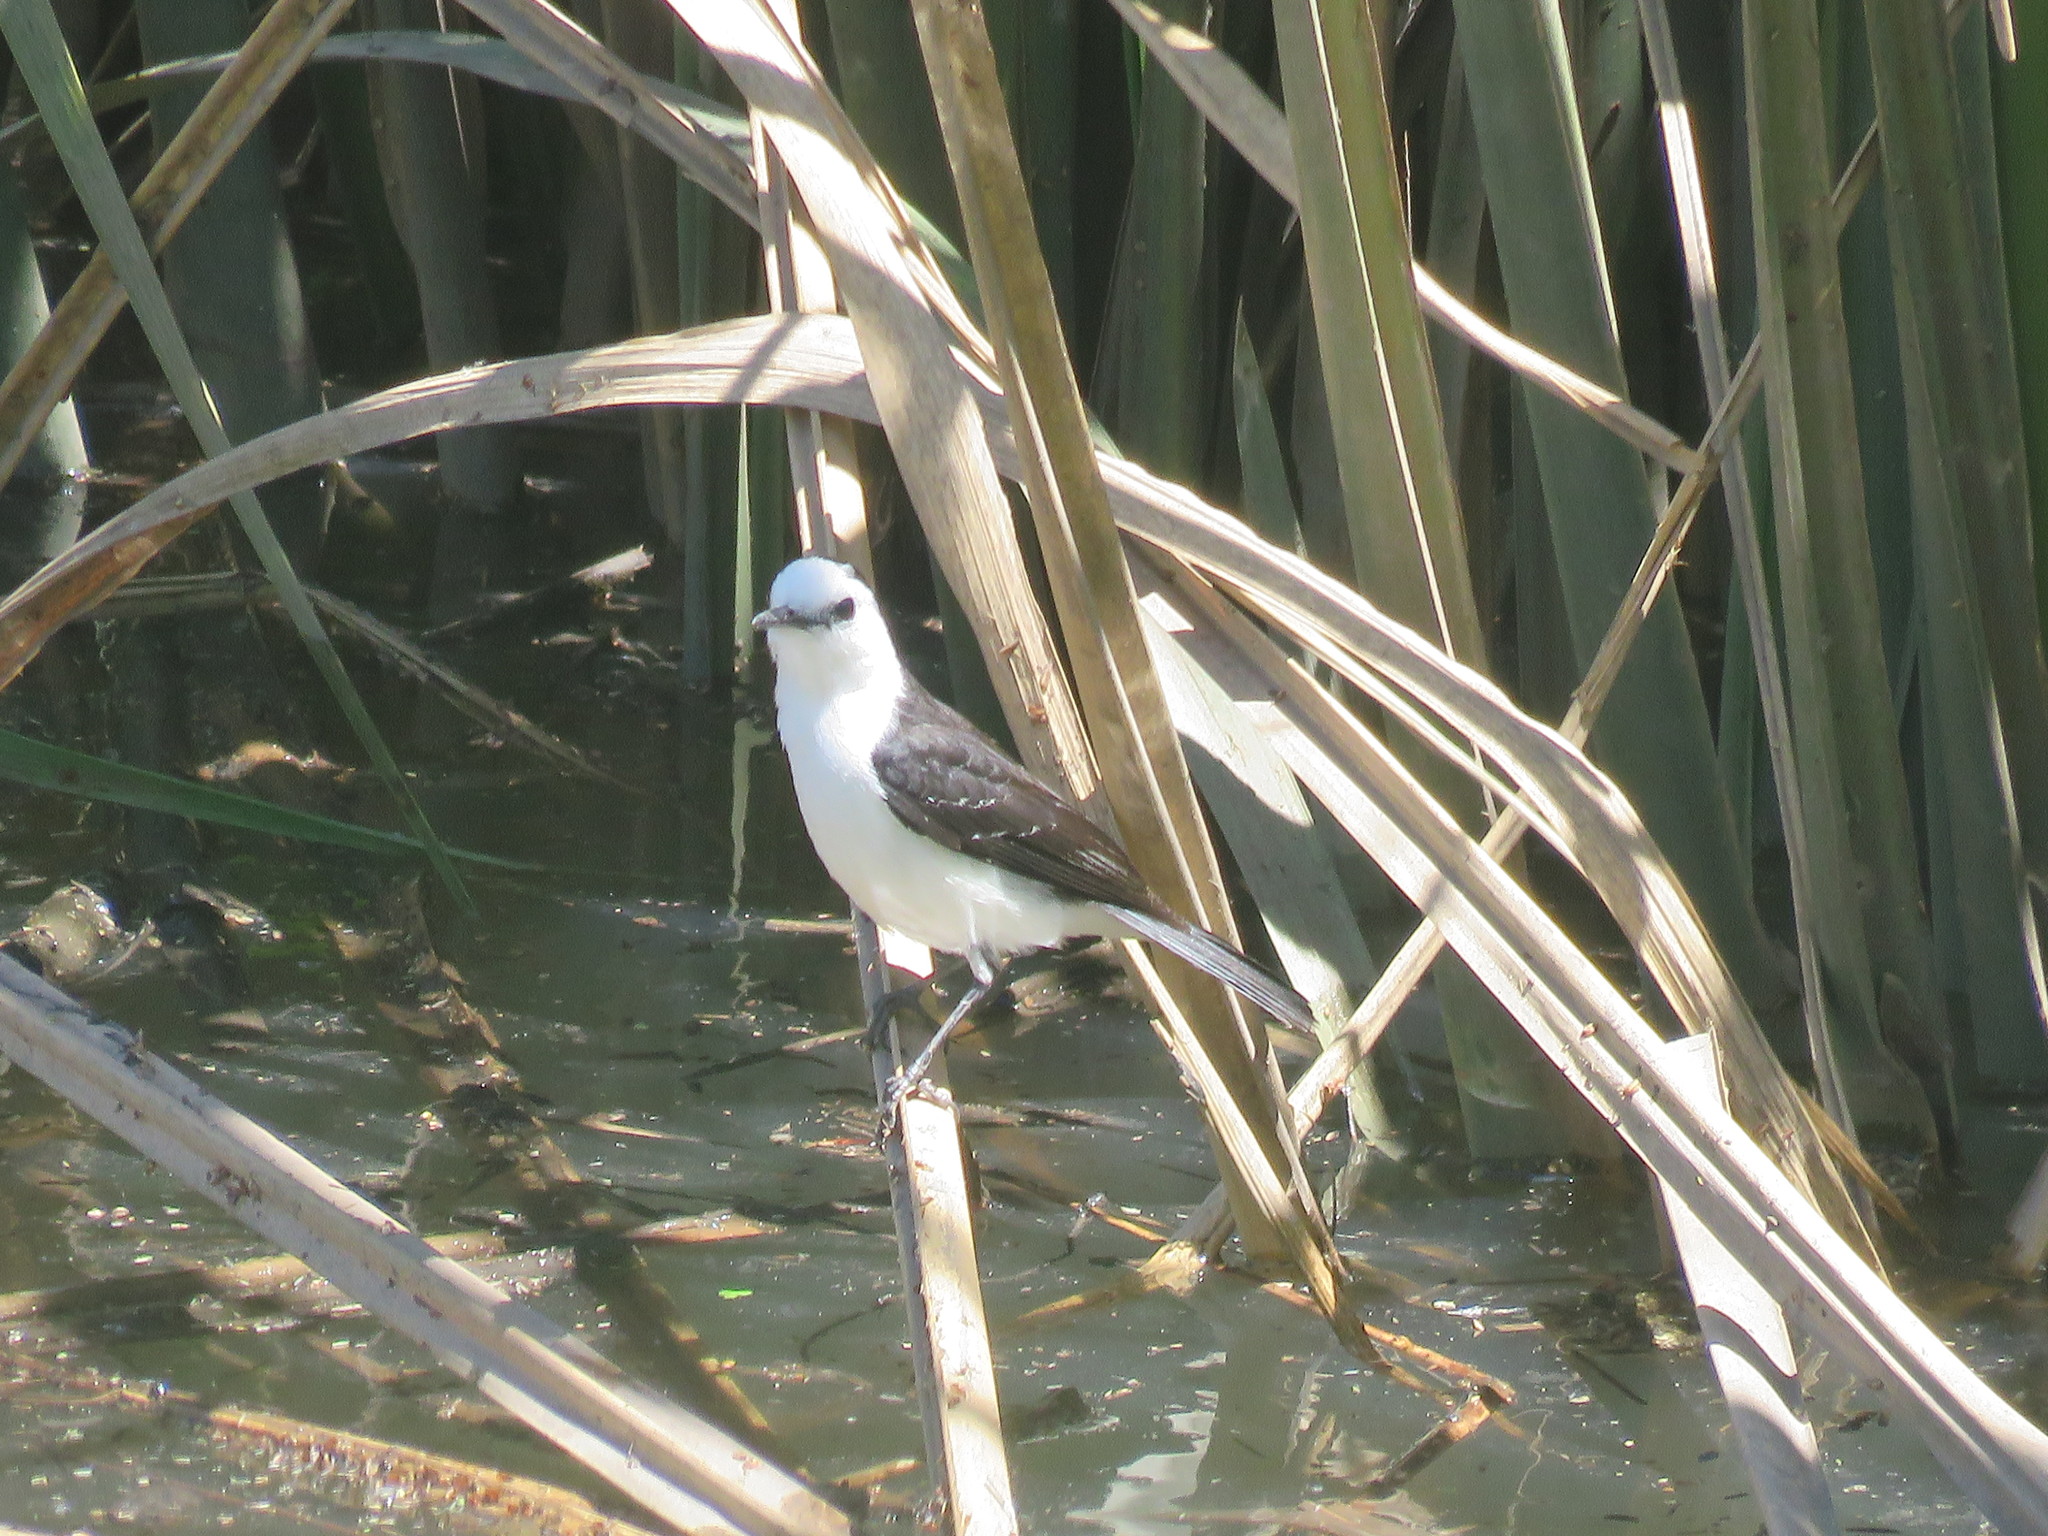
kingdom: Animalia
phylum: Chordata
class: Aves
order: Passeriformes
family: Tyrannidae
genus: Fluvicola
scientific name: Fluvicola pica
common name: Pied water-tyrant
